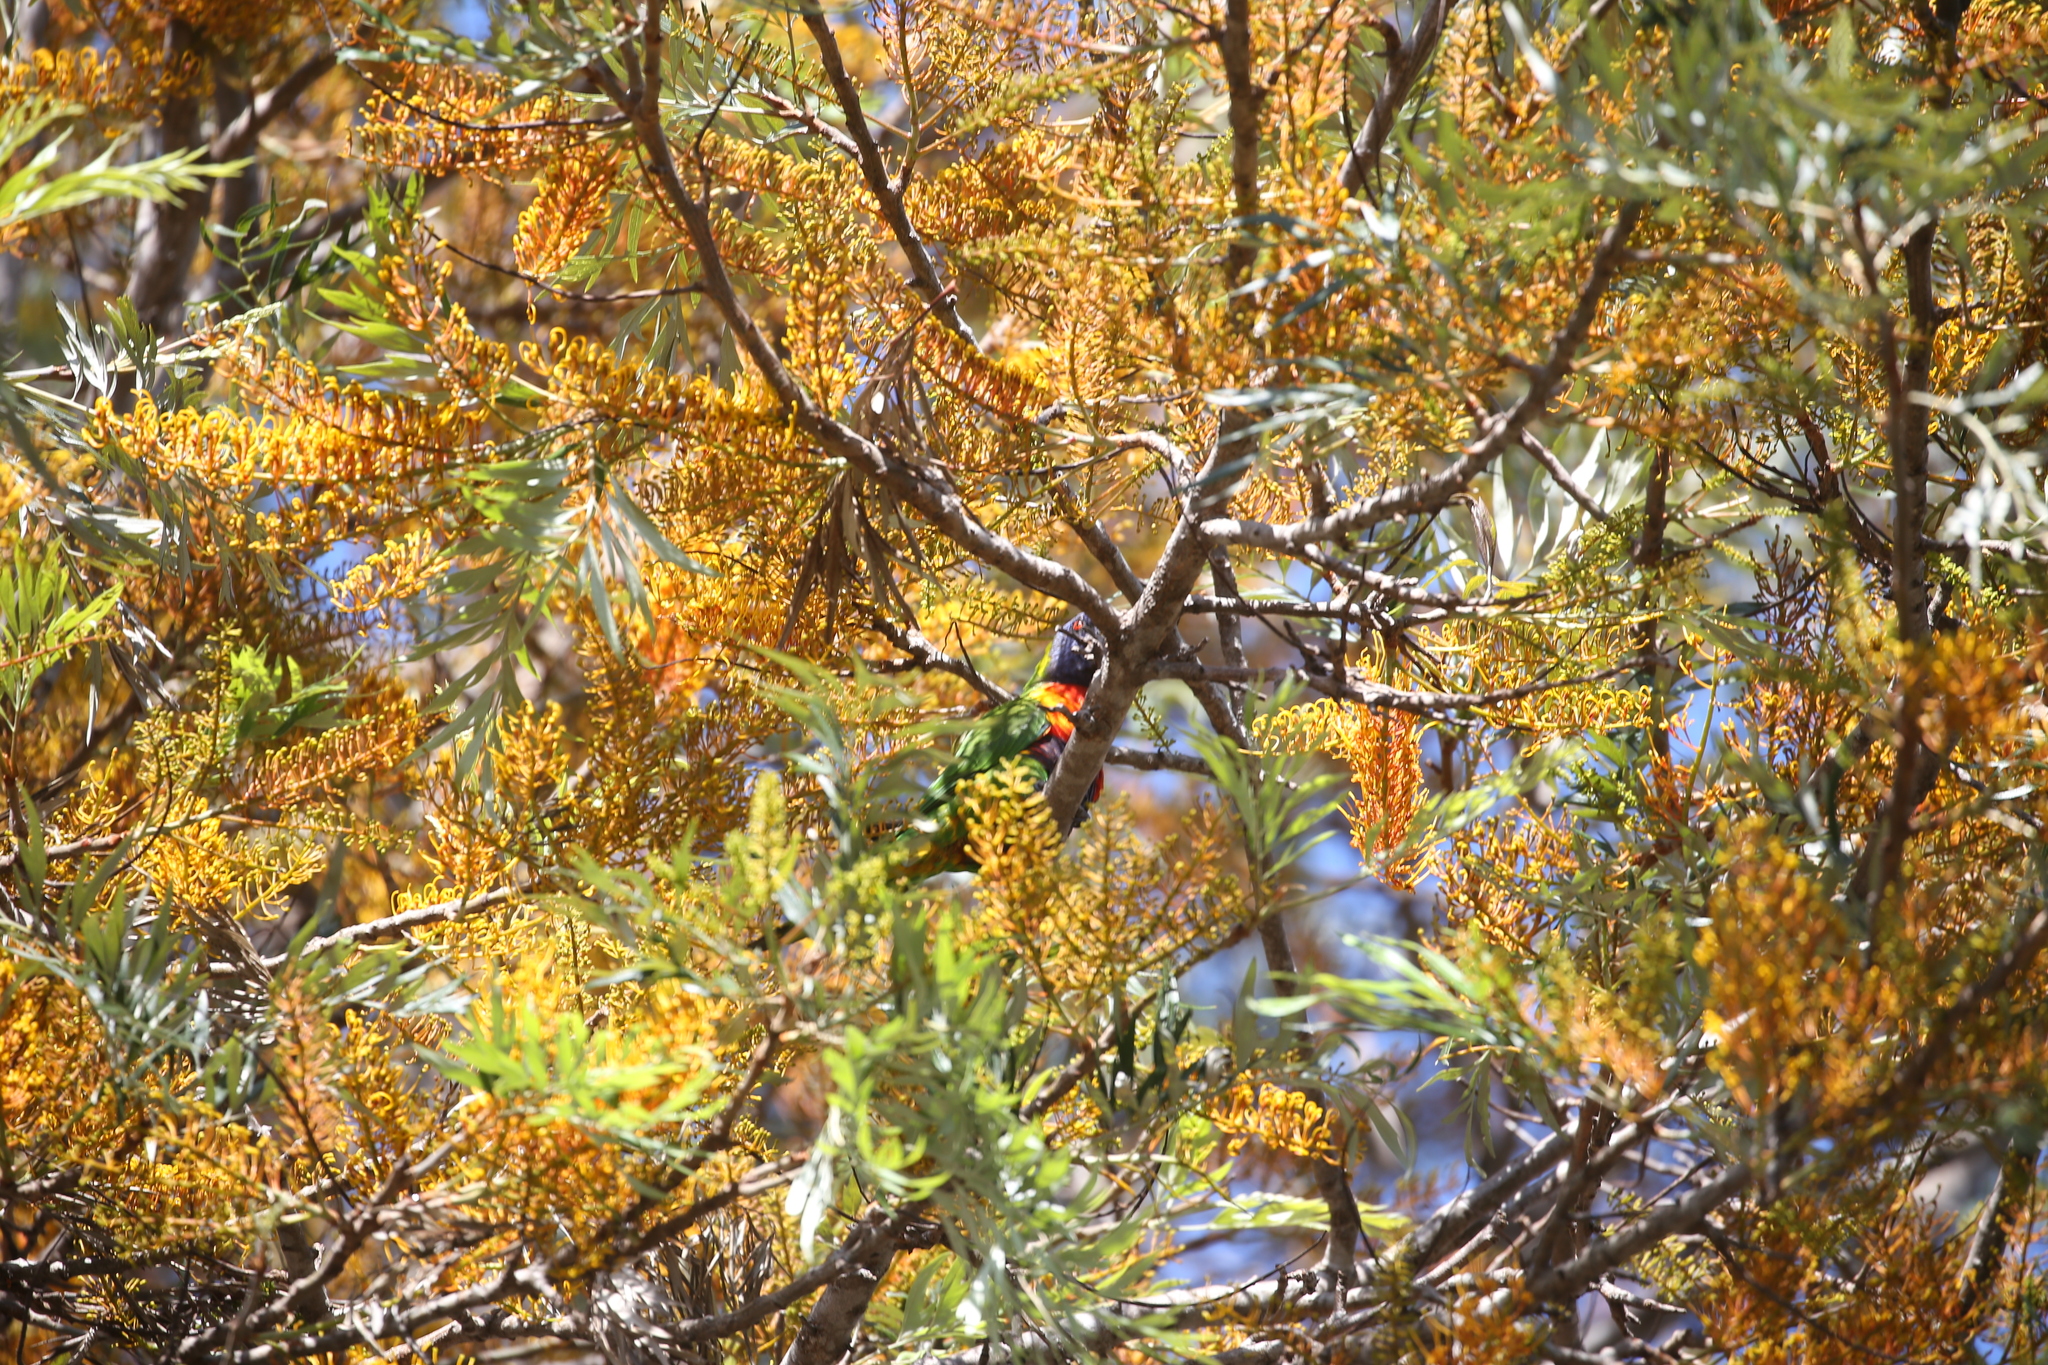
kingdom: Animalia
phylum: Chordata
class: Aves
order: Psittaciformes
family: Psittacidae
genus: Trichoglossus
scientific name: Trichoglossus haematodus
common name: Coconut lorikeet
